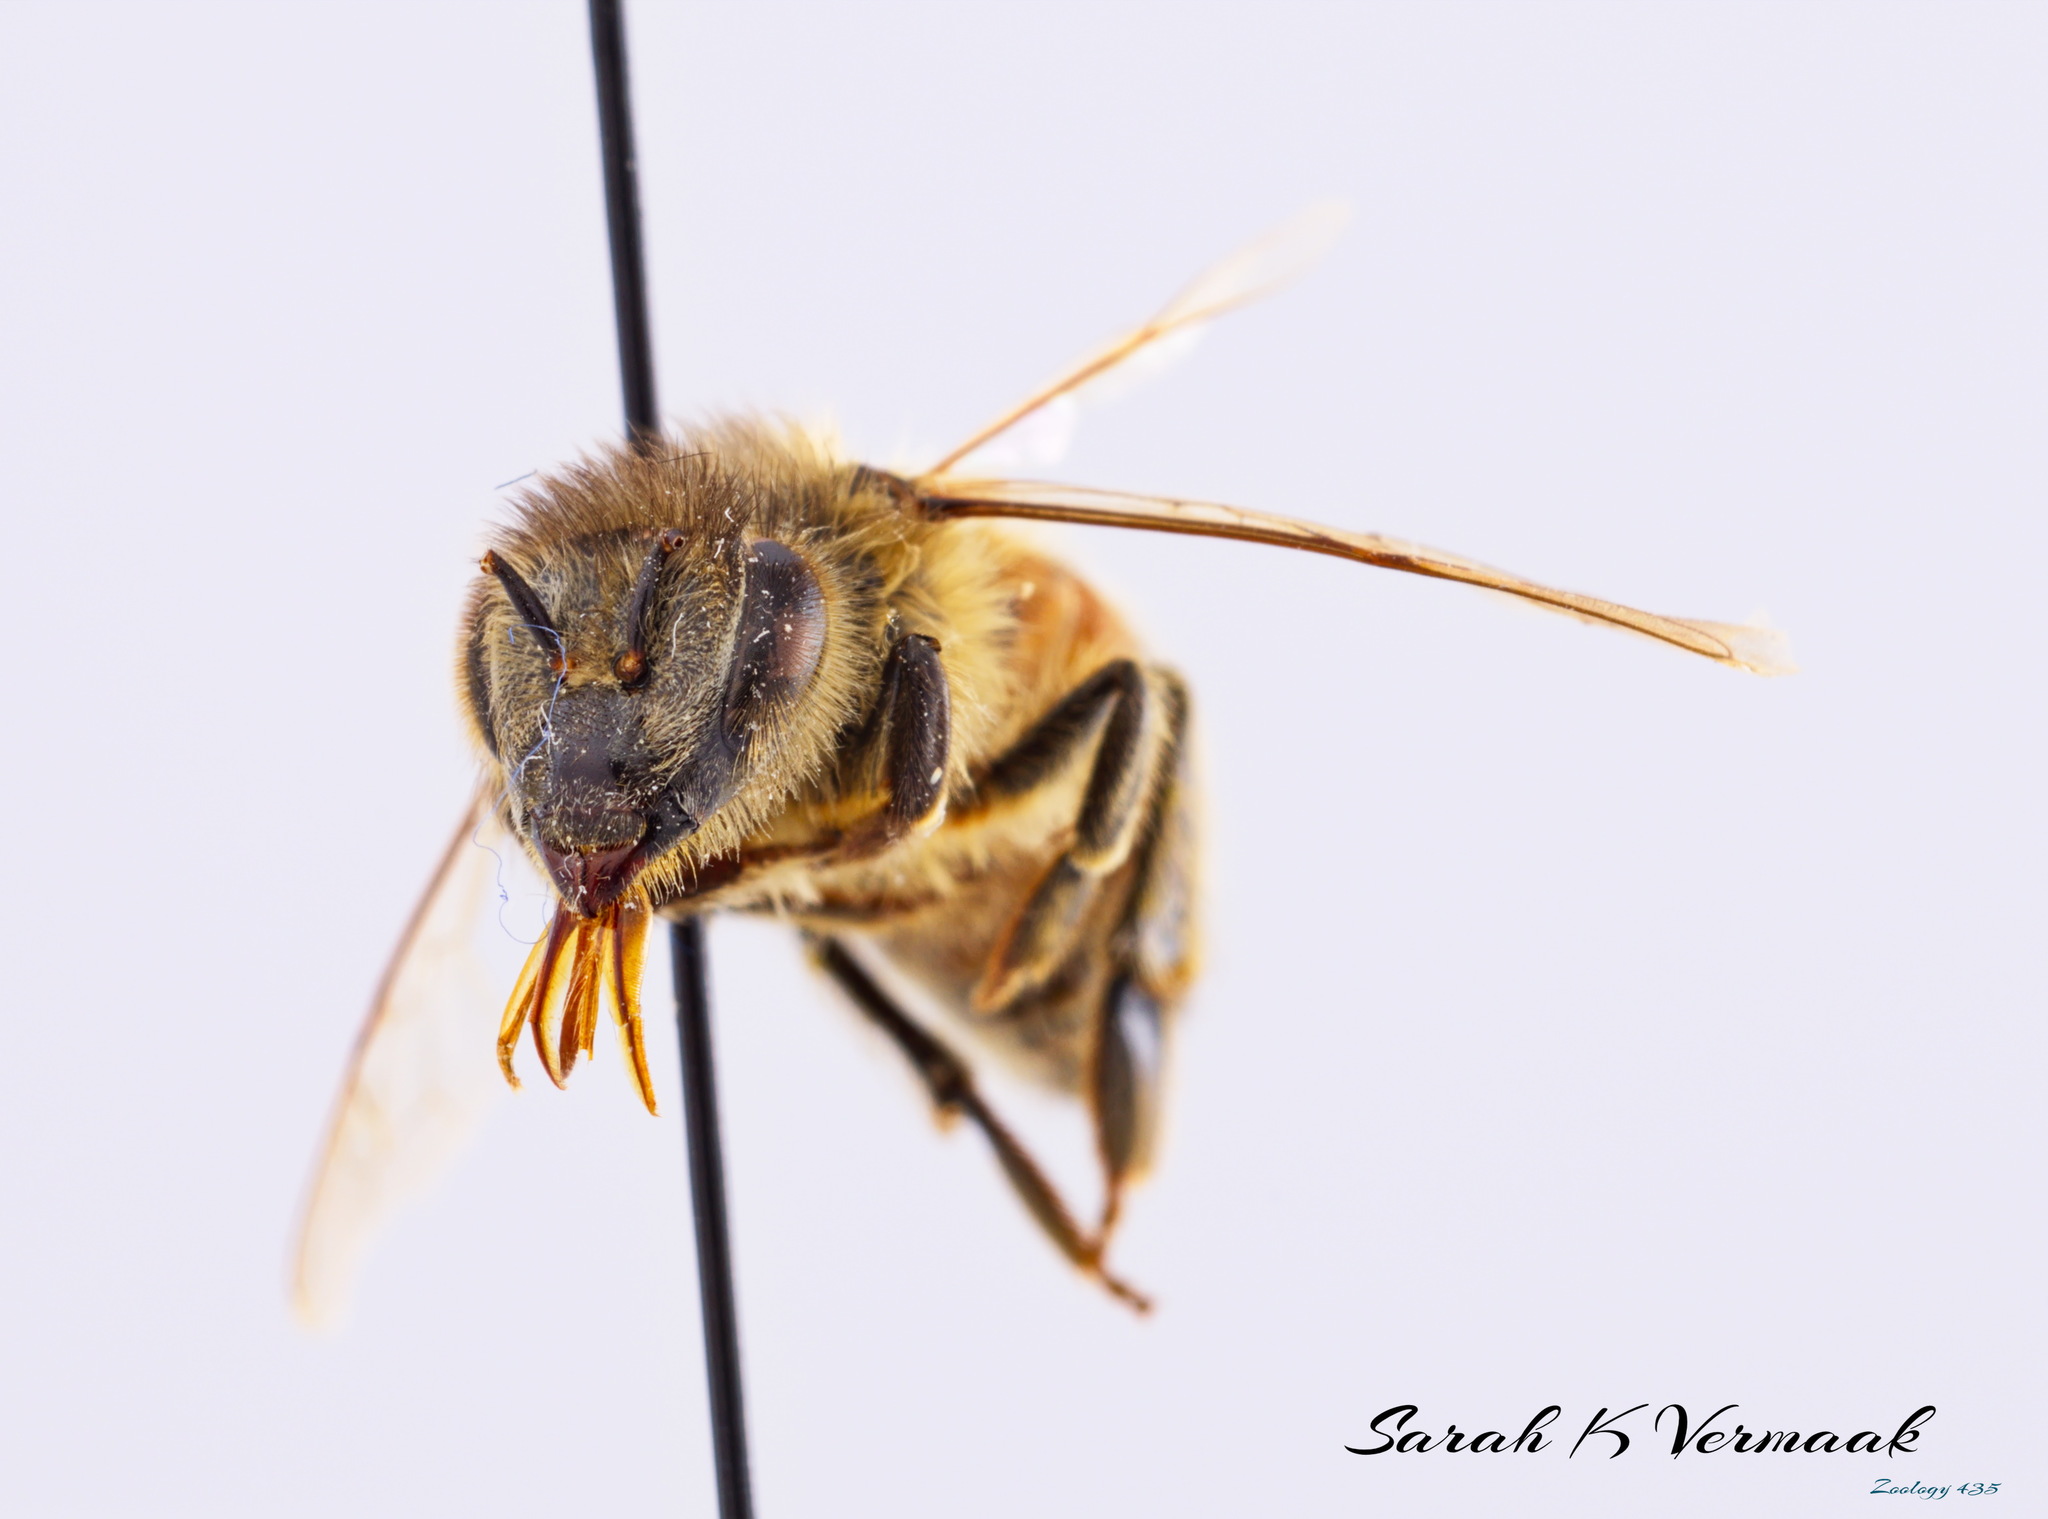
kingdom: Animalia
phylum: Arthropoda
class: Insecta
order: Hymenoptera
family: Apidae
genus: Apis
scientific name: Apis mellifera
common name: Honey bee
